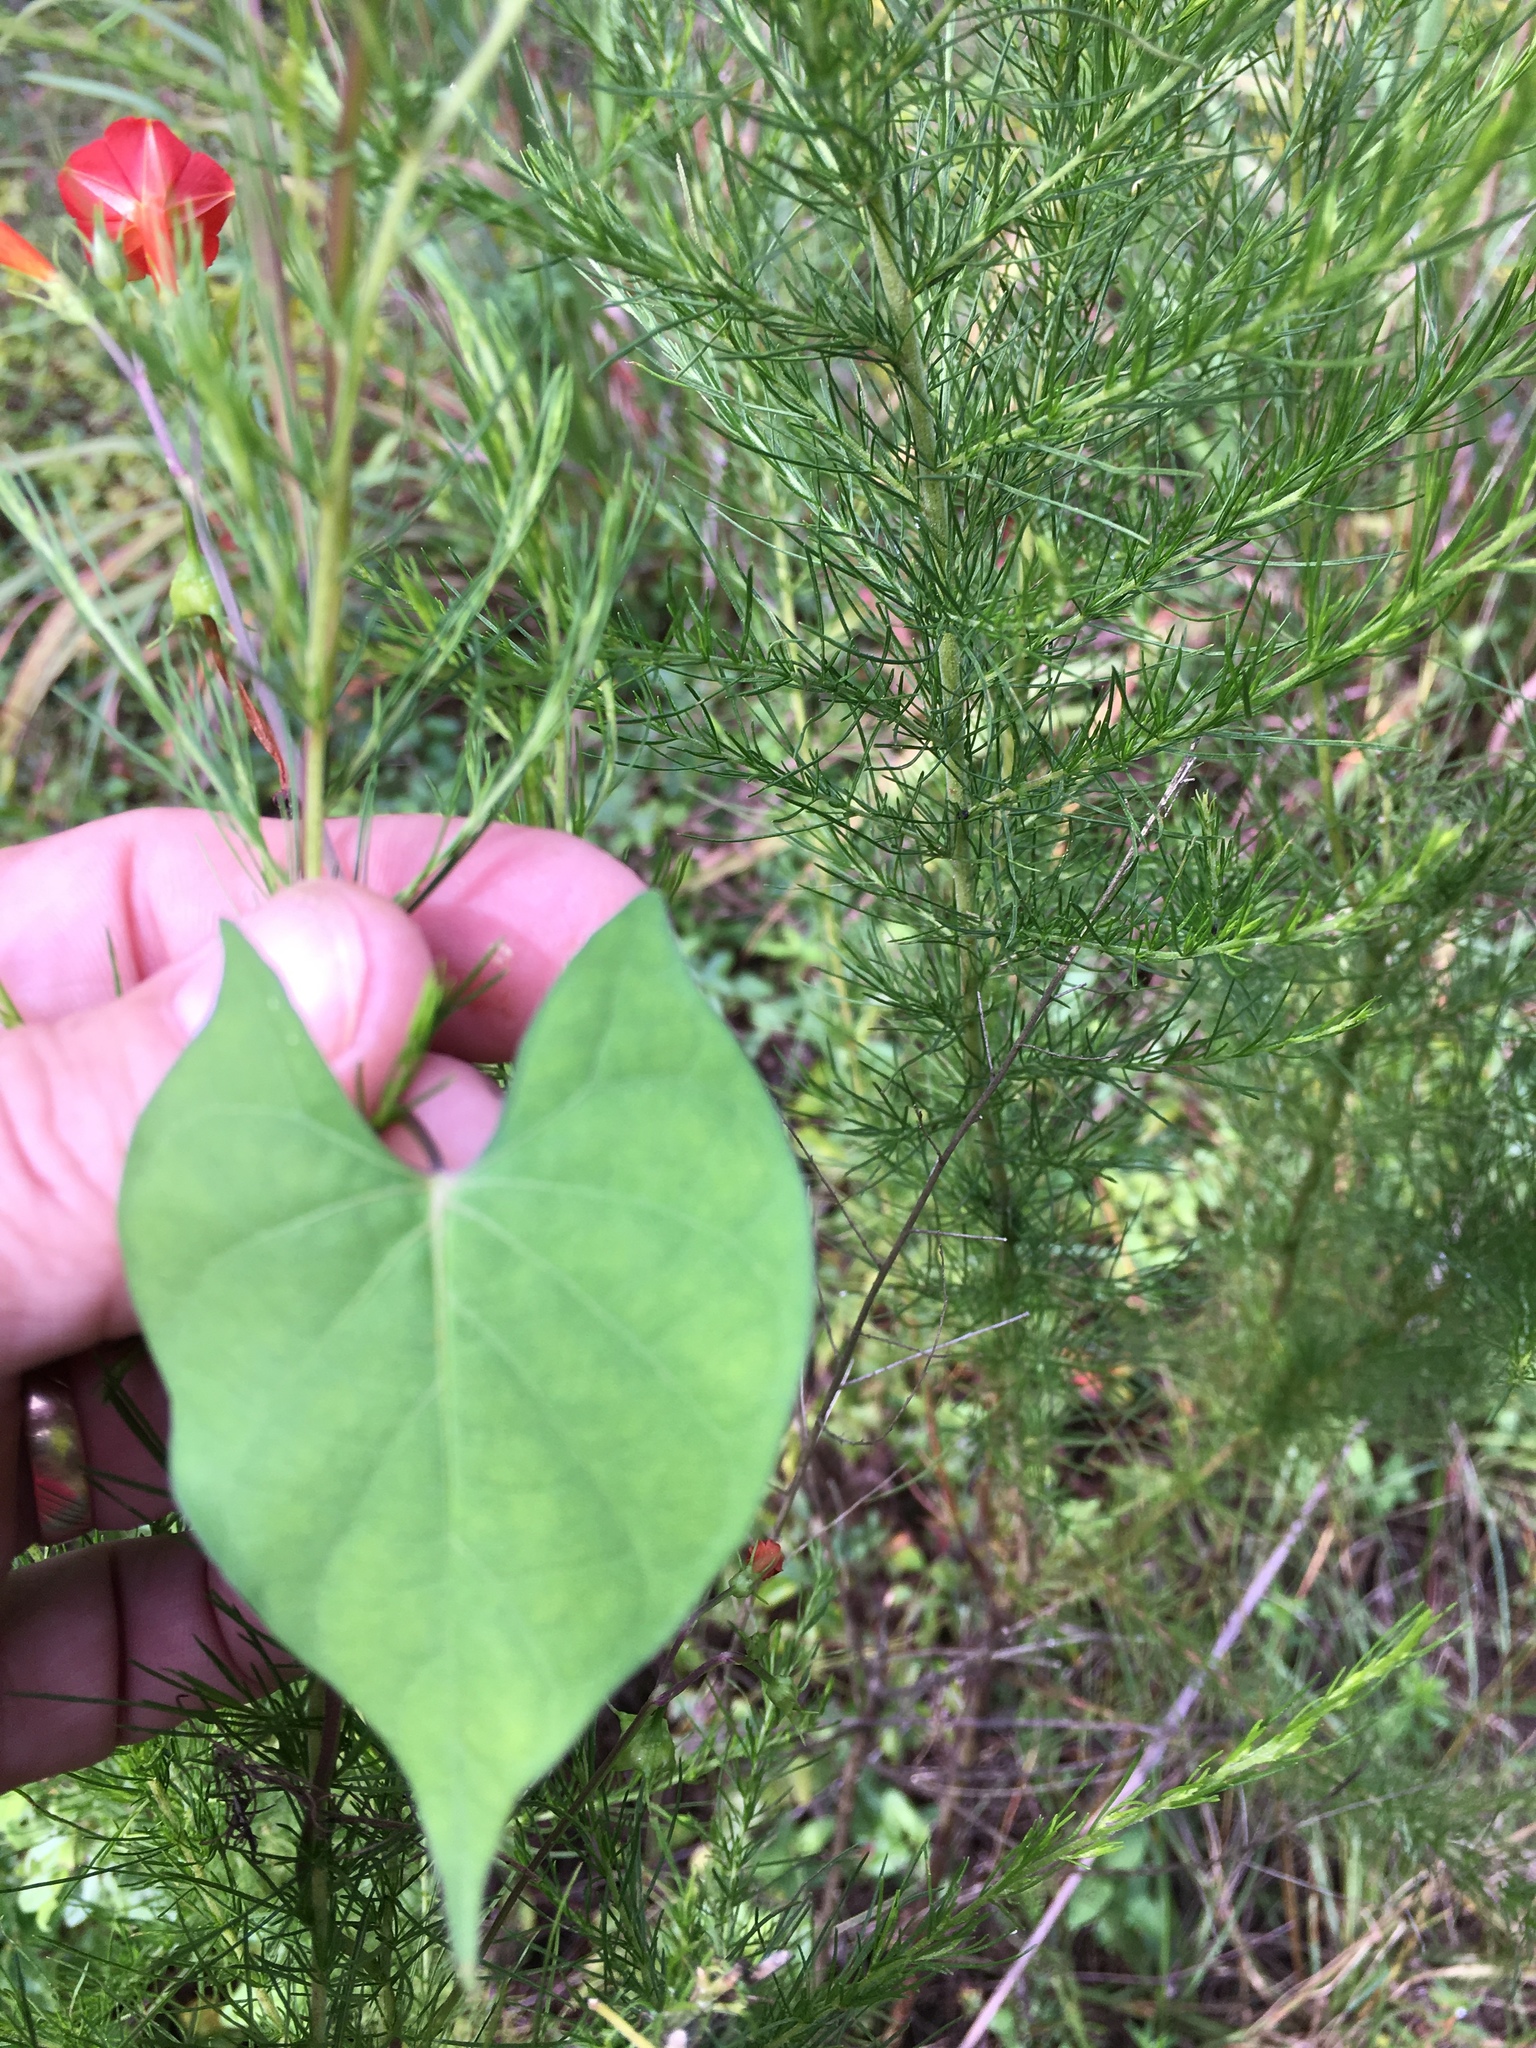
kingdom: Plantae
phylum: Tracheophyta
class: Magnoliopsida
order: Solanales
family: Convolvulaceae
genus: Ipomoea
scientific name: Ipomoea coccinea
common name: Red morning-glory
